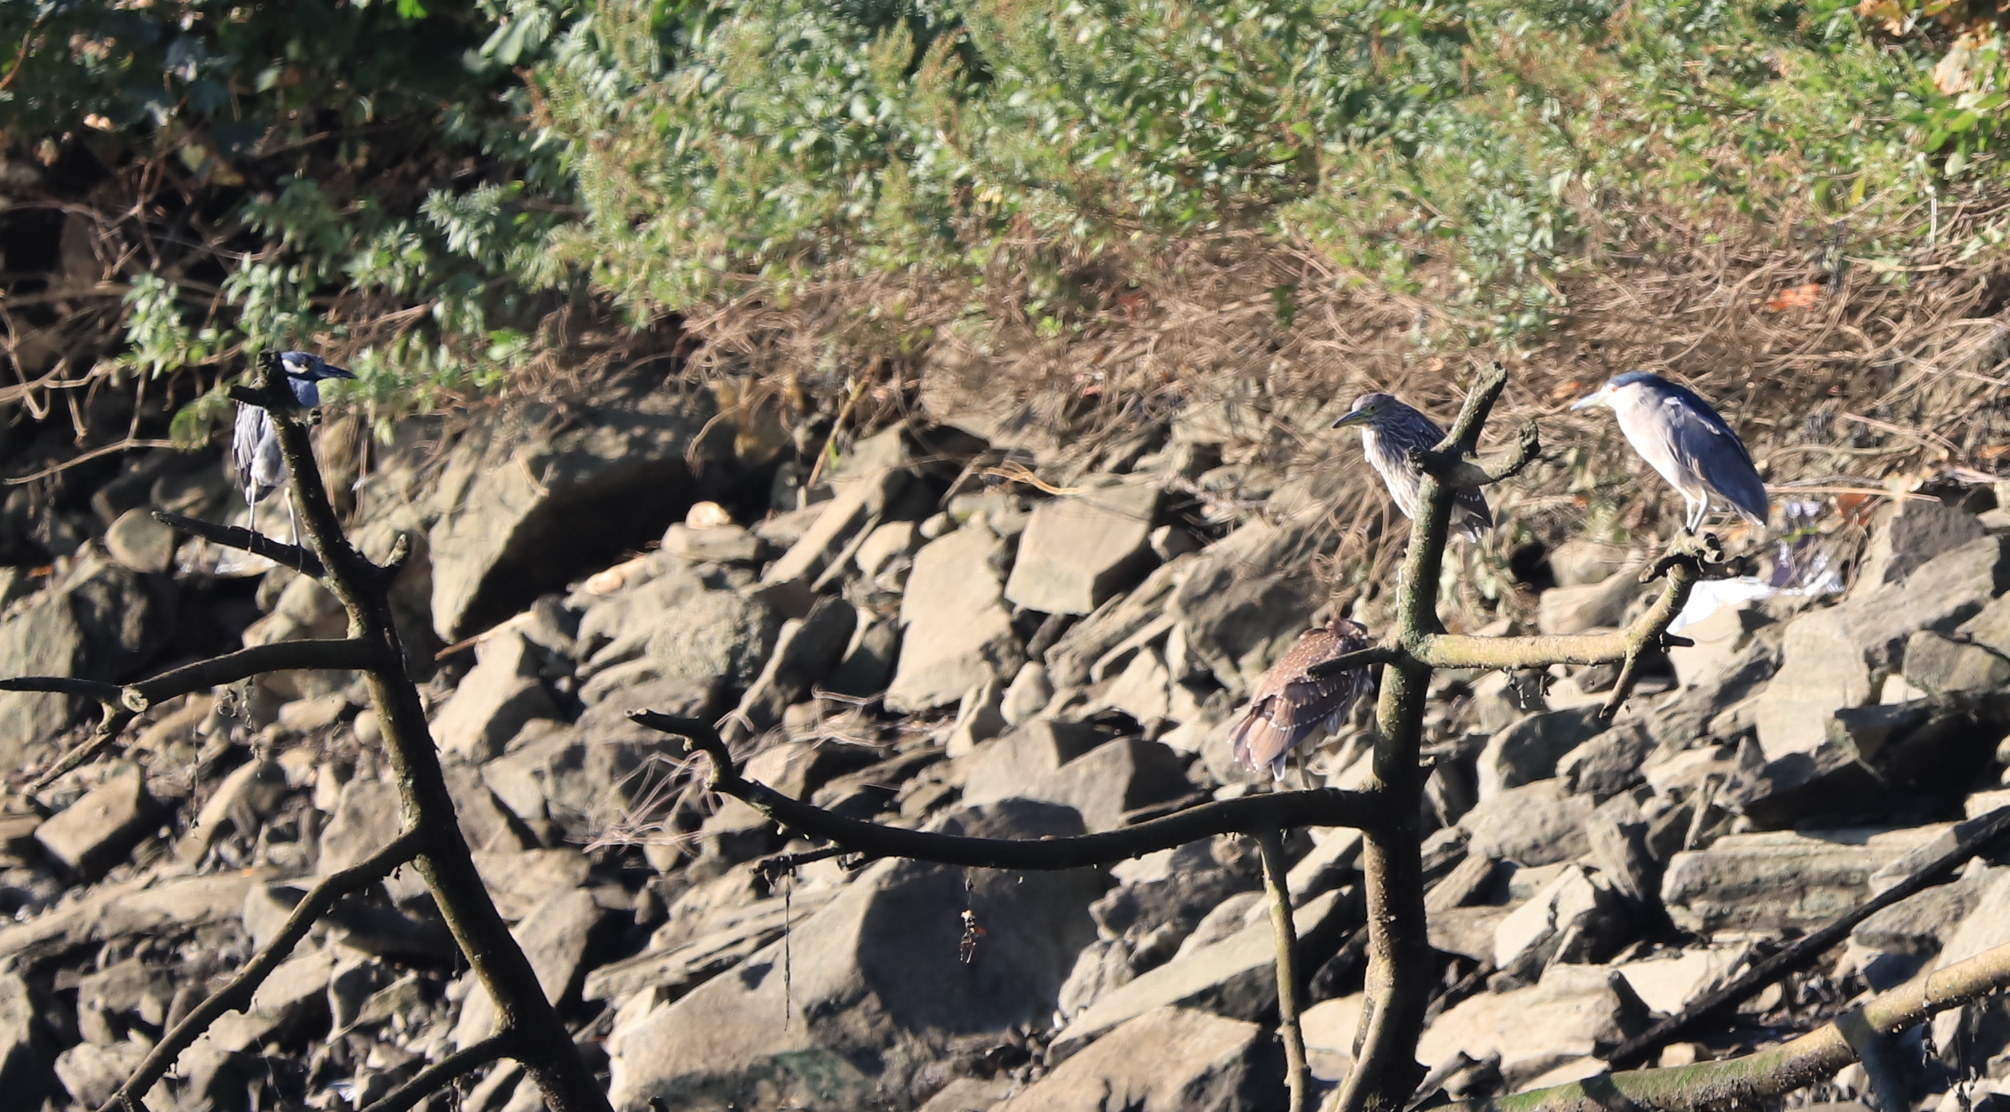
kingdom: Animalia
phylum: Chordata
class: Aves
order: Pelecaniformes
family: Ardeidae
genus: Nycticorax
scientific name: Nycticorax nycticorax
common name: Black-crowned night heron
